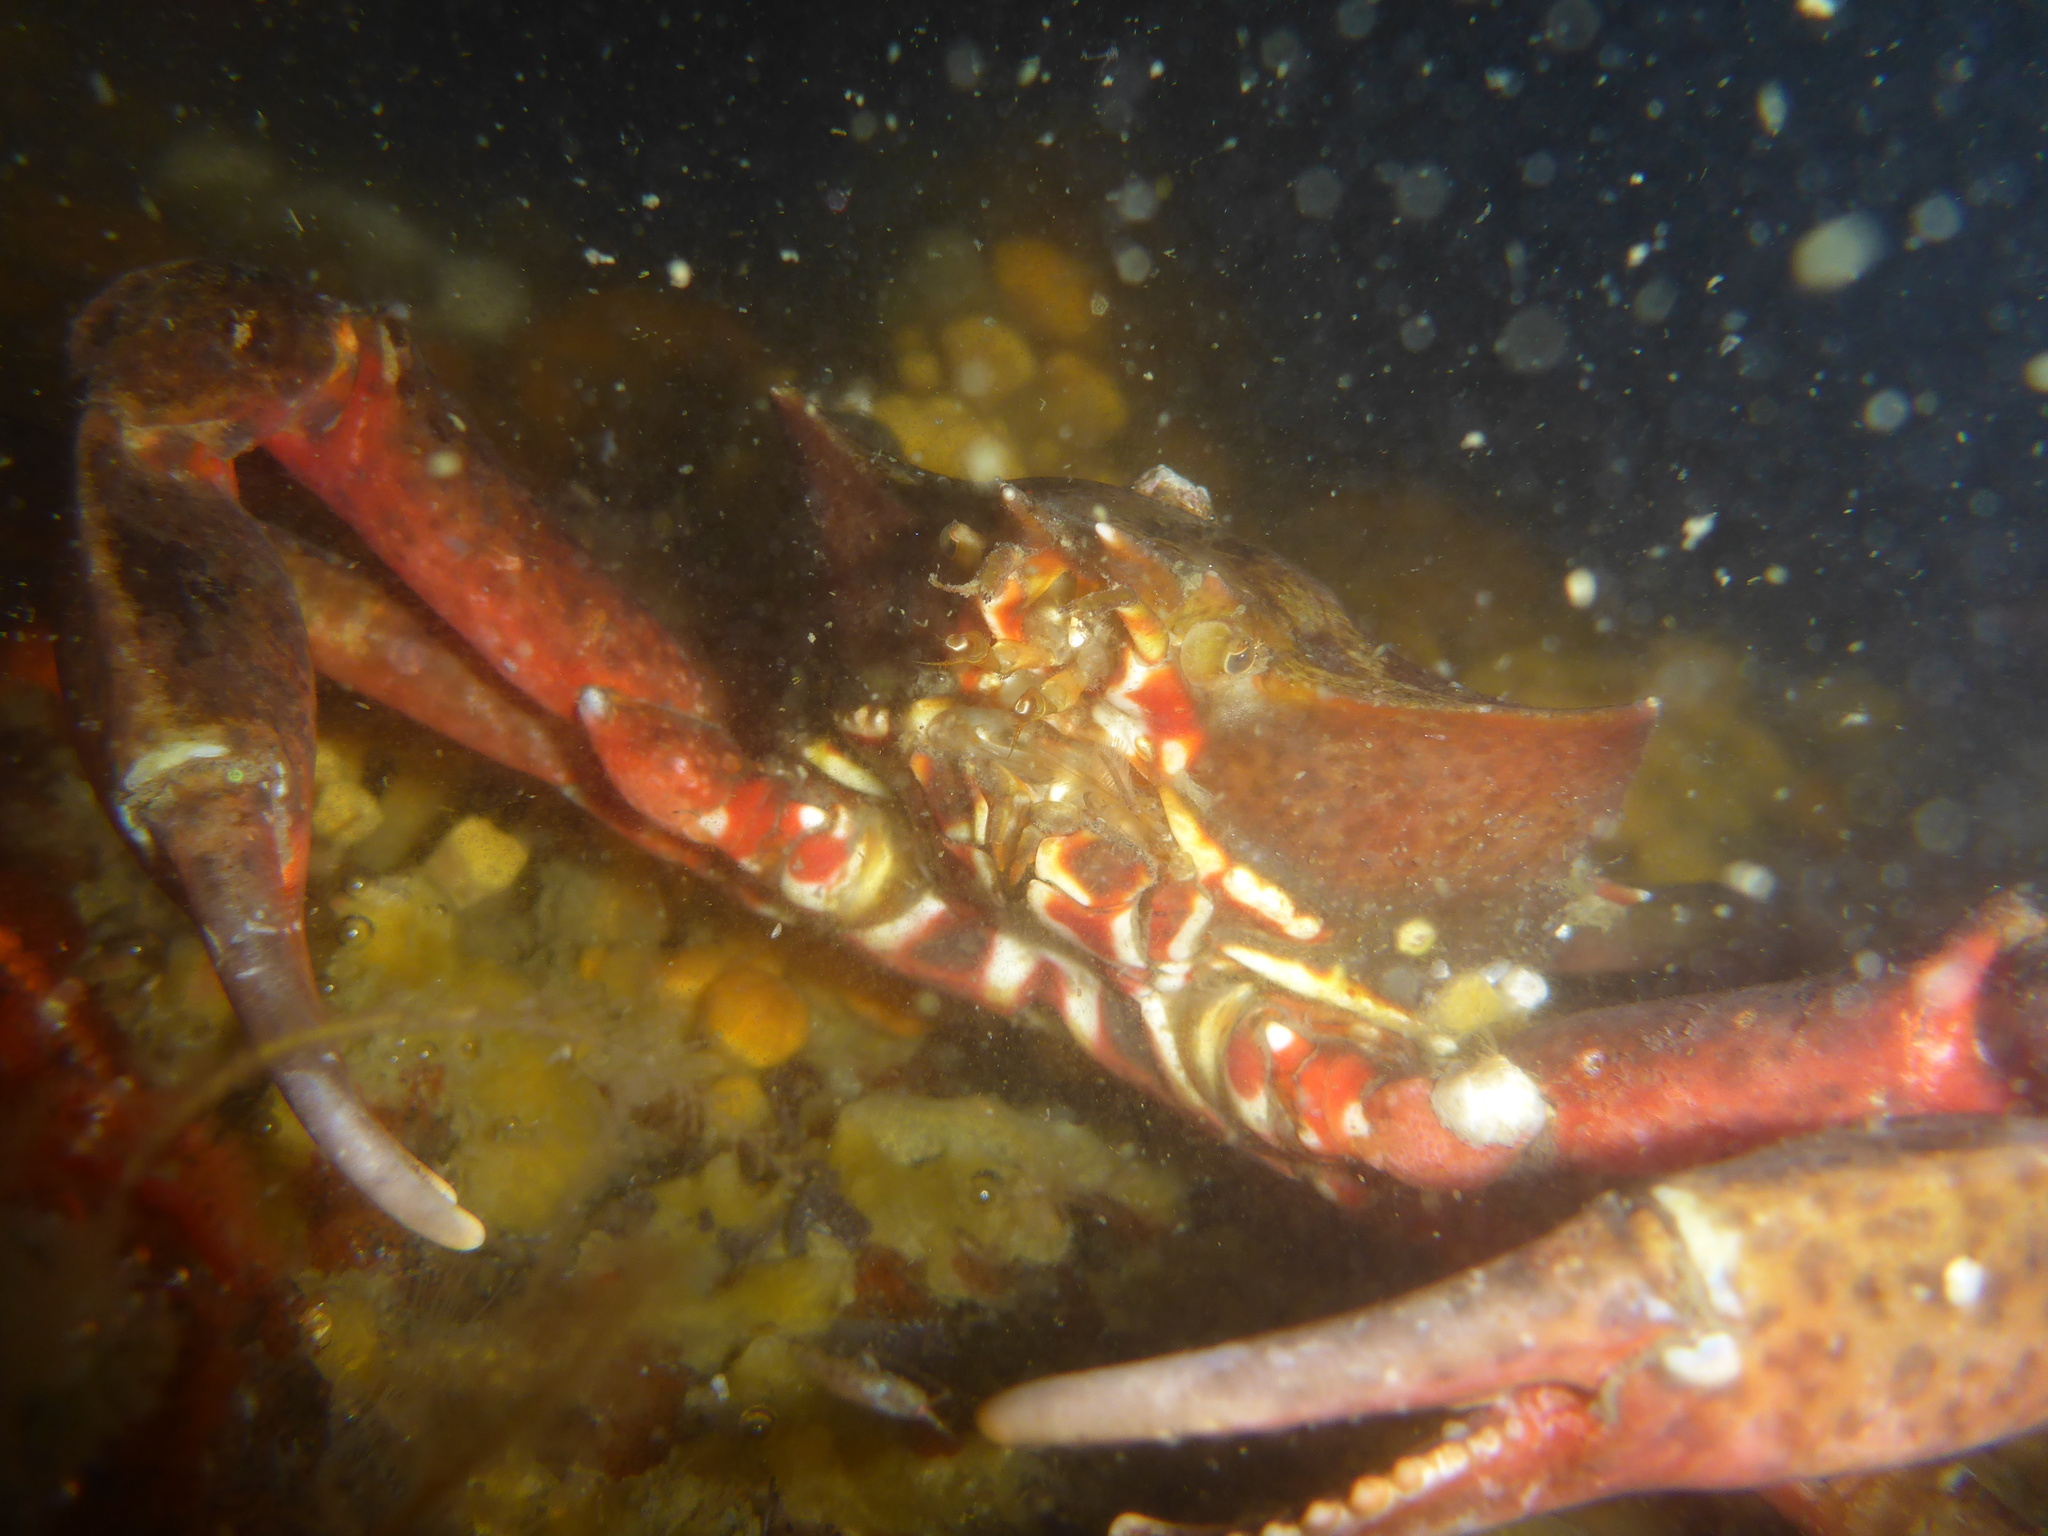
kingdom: Animalia
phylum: Arthropoda
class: Malacostraca
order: Decapoda
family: Epialtidae
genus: Pugettia
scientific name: Pugettia producta
